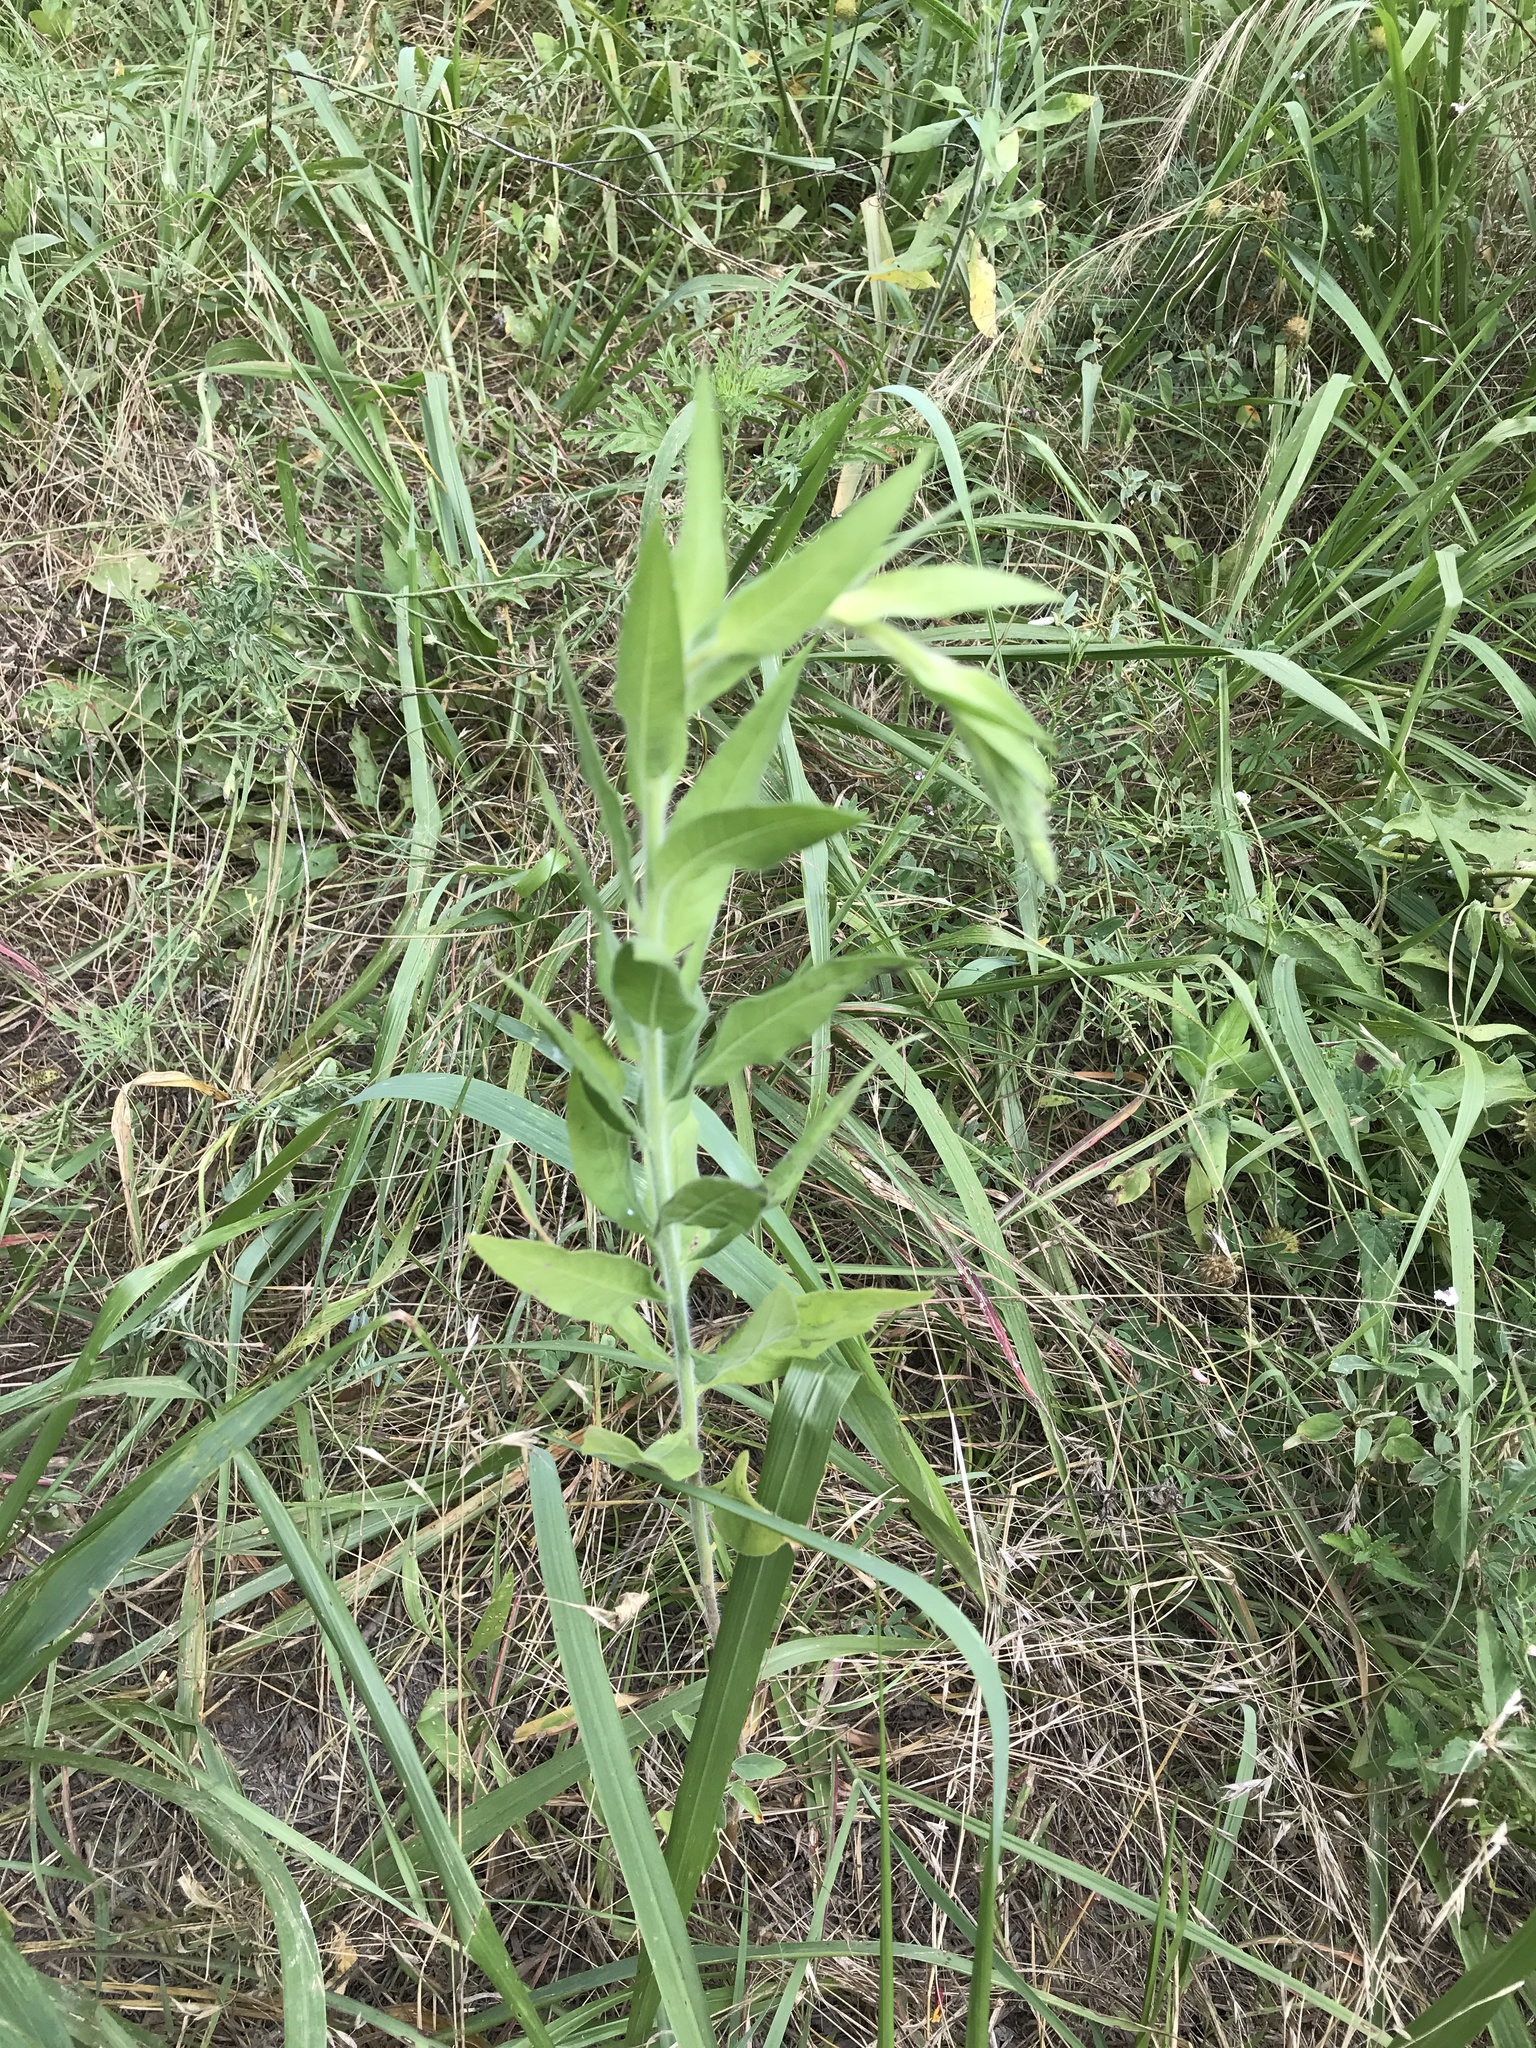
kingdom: Plantae
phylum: Tracheophyta
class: Magnoliopsida
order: Myrtales
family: Onagraceae
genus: Oenothera
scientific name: Oenothera curtiflora
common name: Velvetweed
